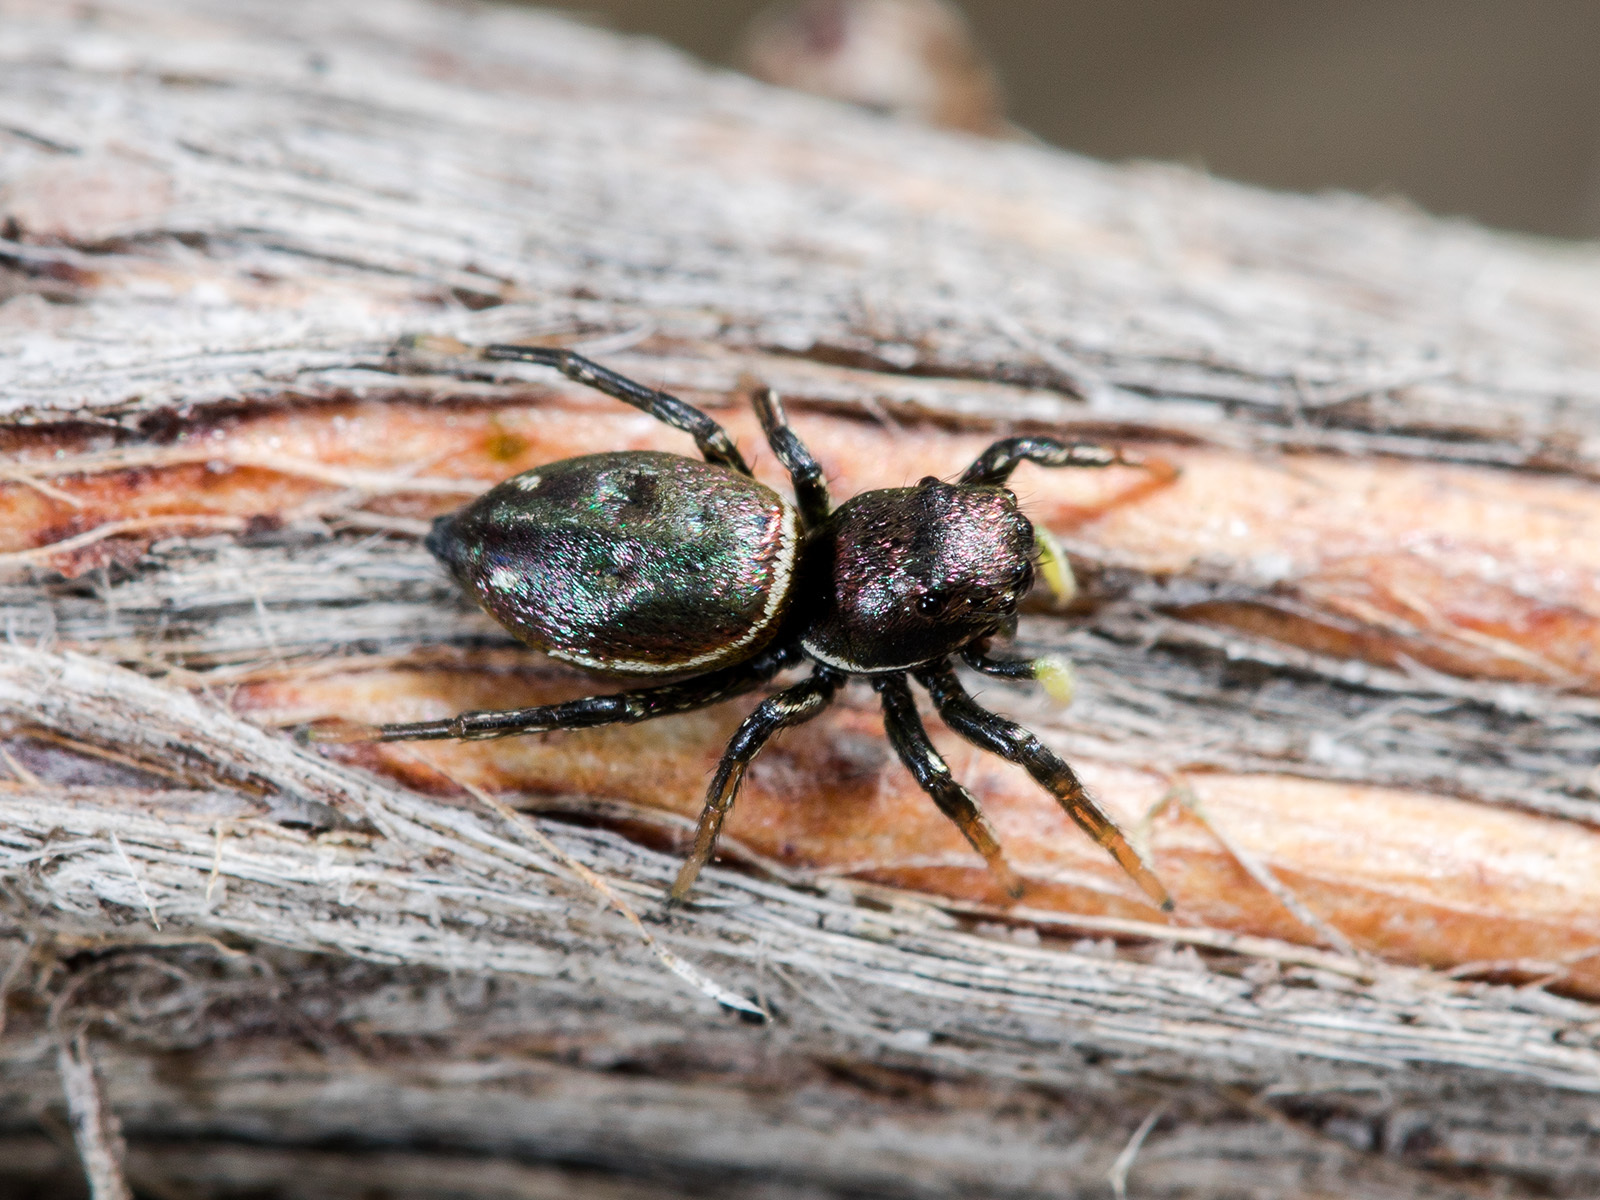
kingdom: Animalia
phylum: Arthropoda
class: Arachnida
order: Araneae
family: Salticidae
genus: Heliophanus
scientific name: Heliophanus chovdensis
